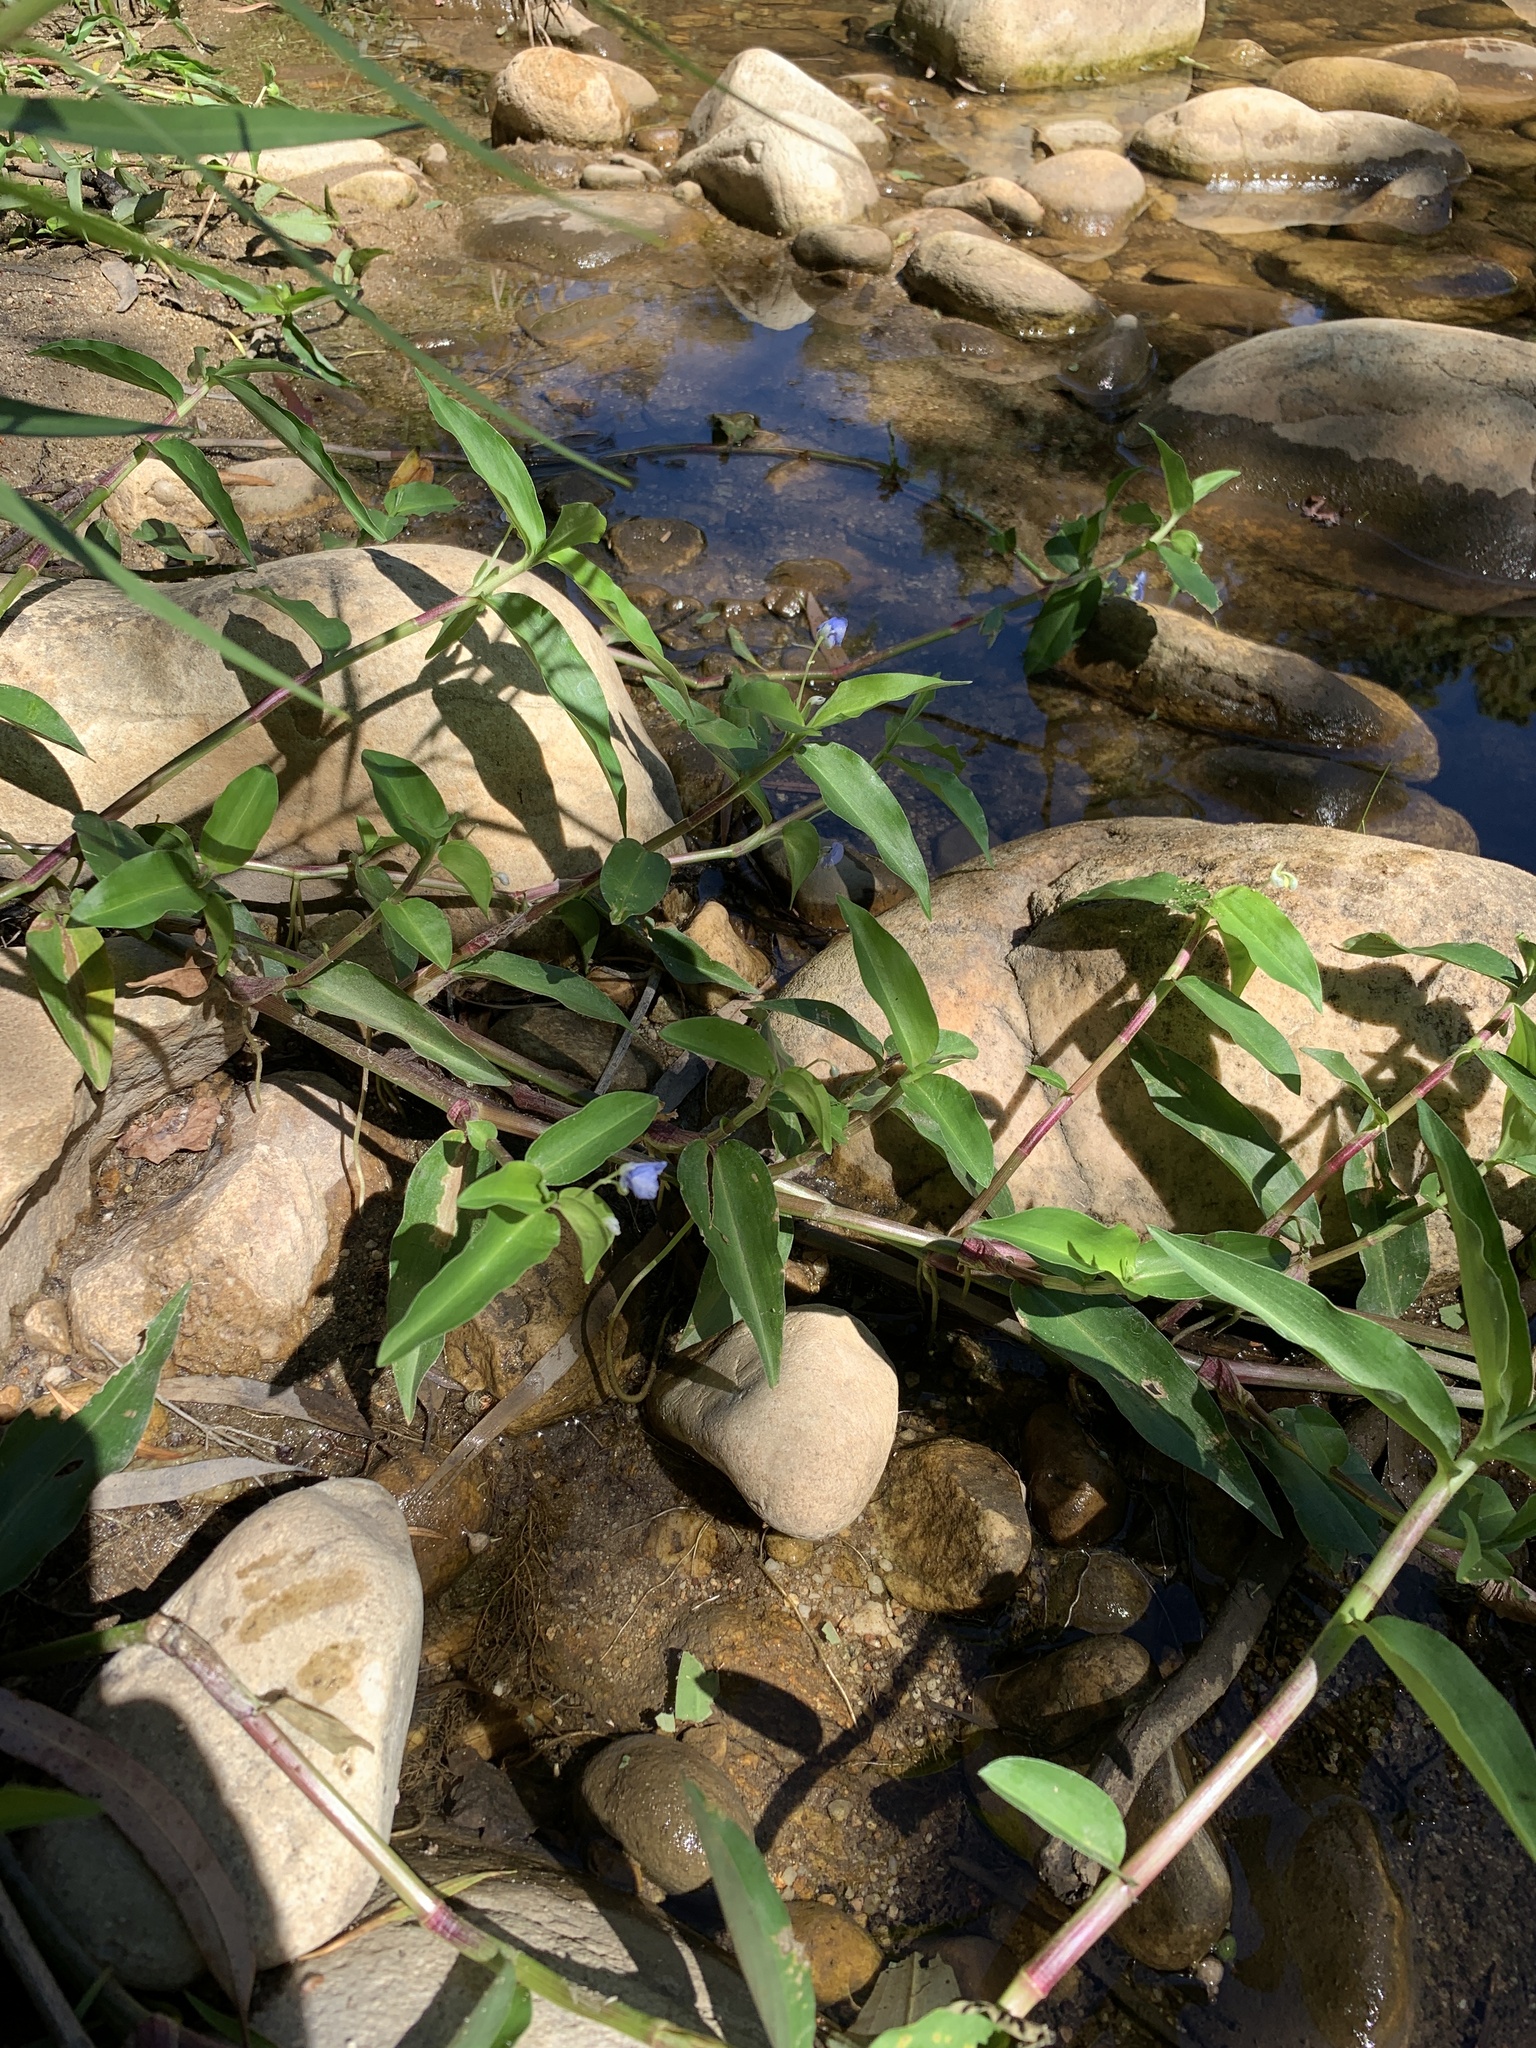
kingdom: Plantae
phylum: Tracheophyta
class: Liliopsida
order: Commelinales
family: Commelinaceae
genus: Commelina
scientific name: Commelina diffusa
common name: Climbing dayflower
